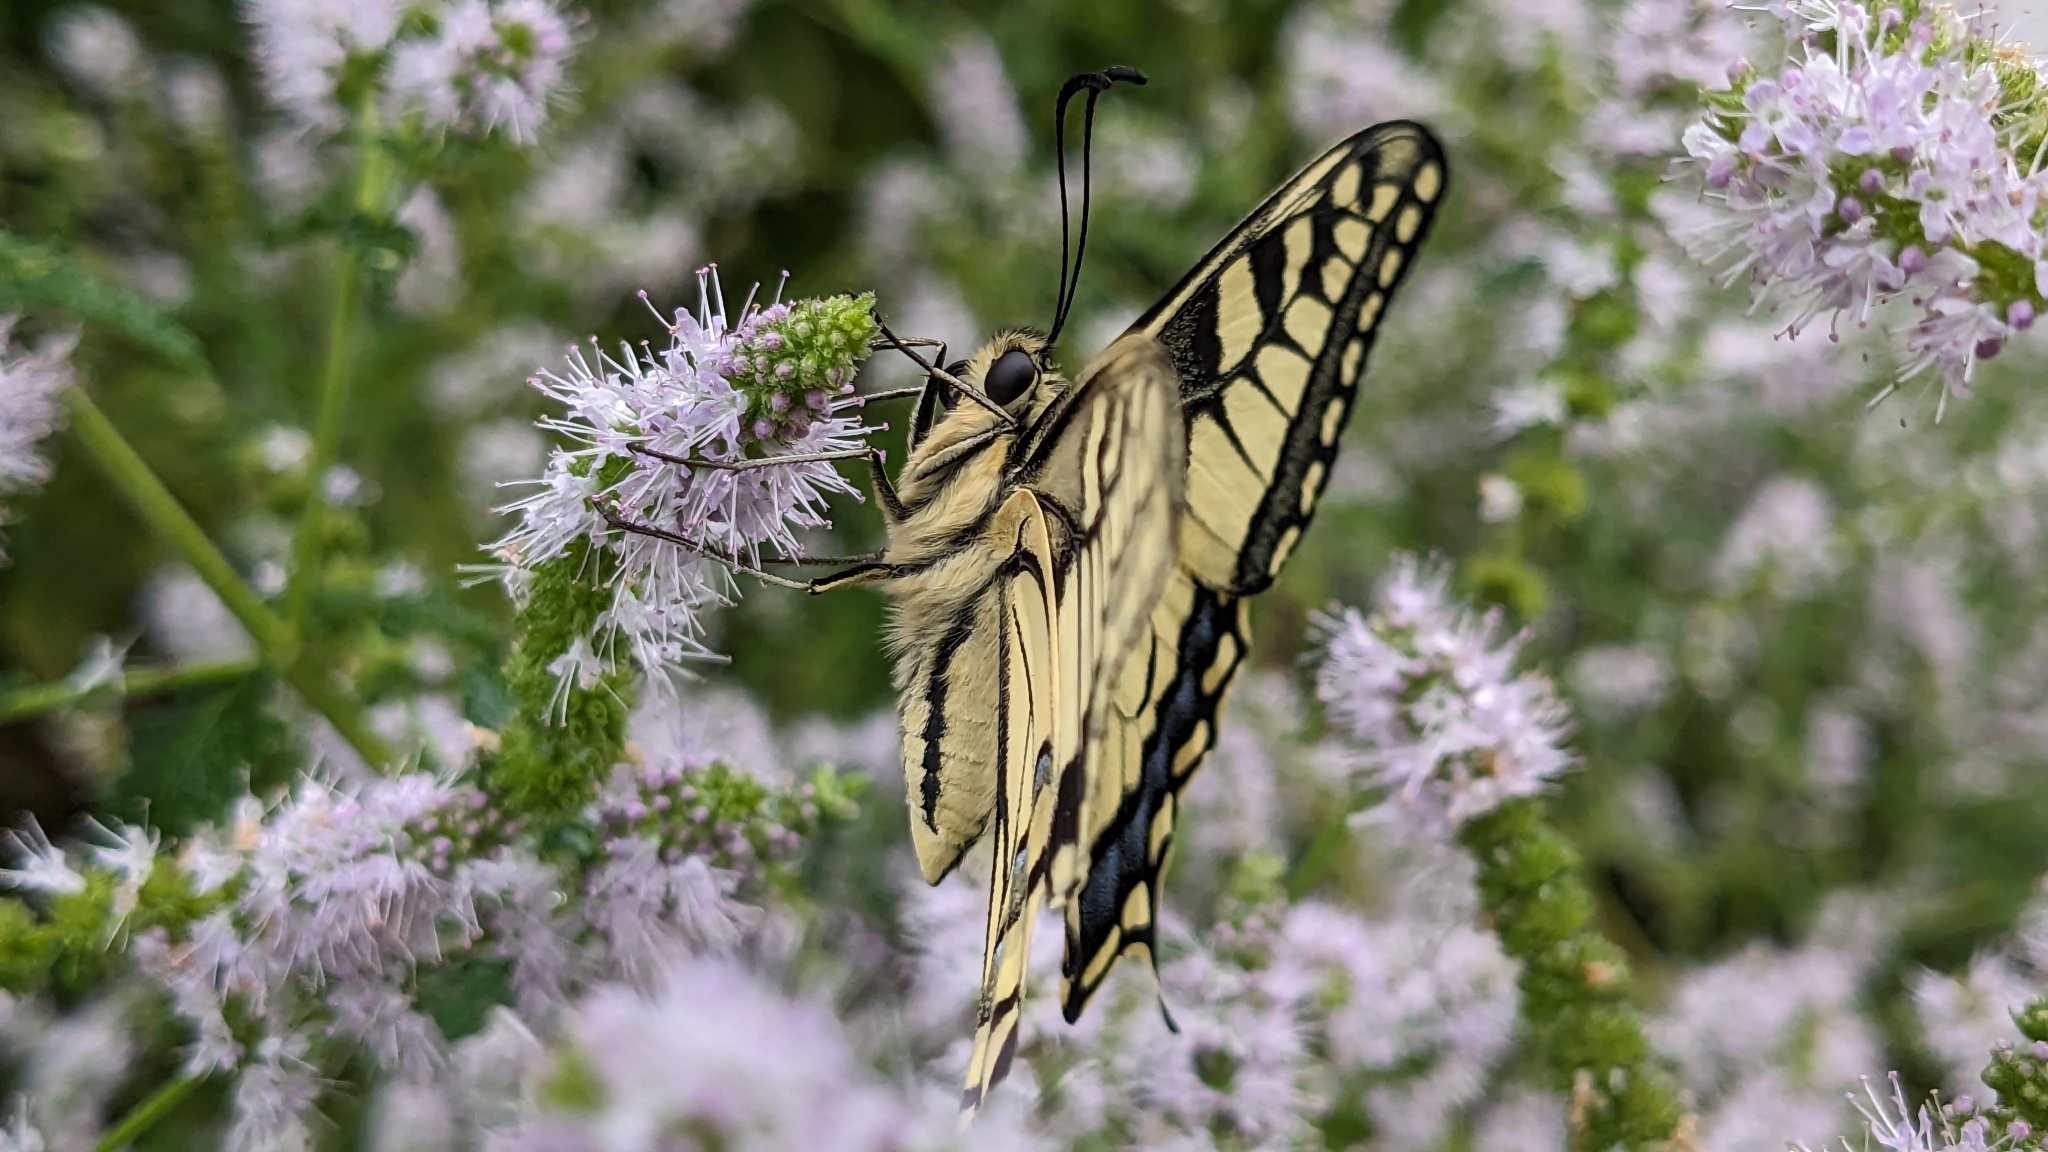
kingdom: Animalia
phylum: Arthropoda
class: Insecta
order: Lepidoptera
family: Papilionidae
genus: Papilio
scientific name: Papilio machaon
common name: Swallowtail
